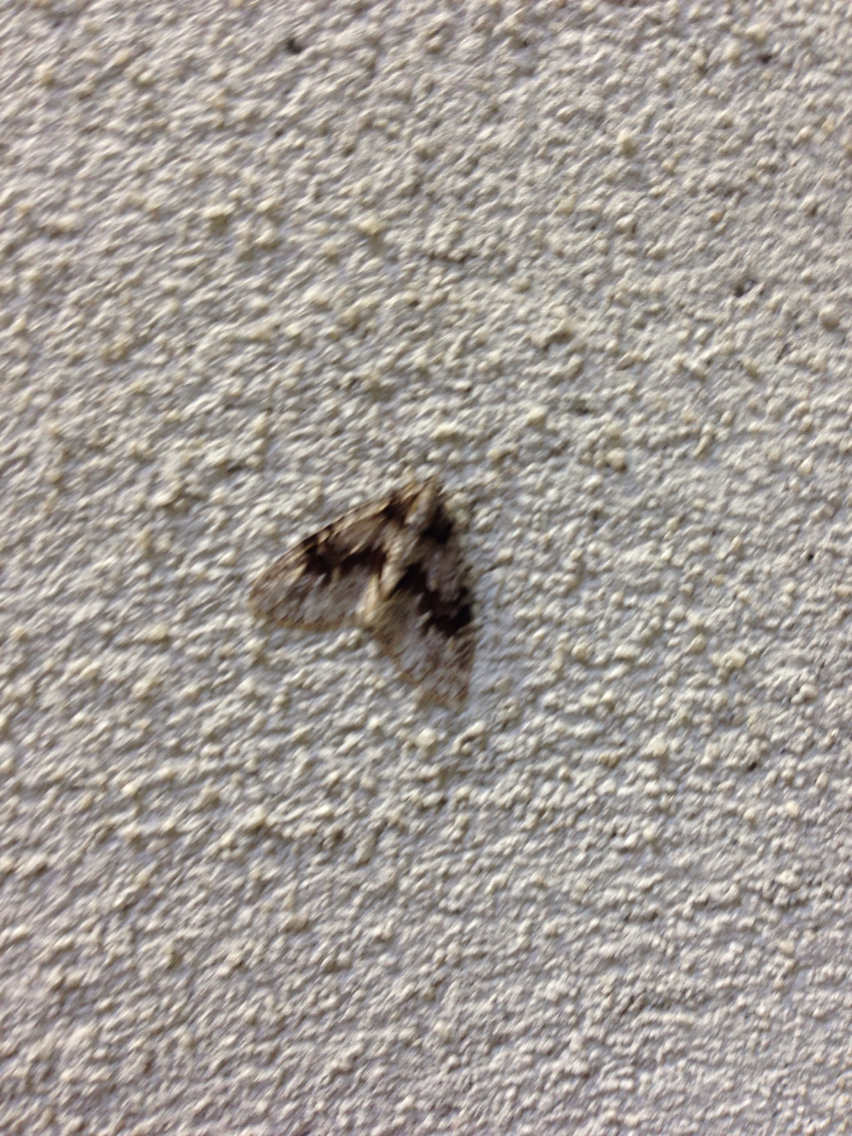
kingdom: Animalia
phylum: Arthropoda
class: Insecta
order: Lepidoptera
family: Geometridae
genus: Cladara
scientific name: Cladara limitaria
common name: Mottled gray carpet
